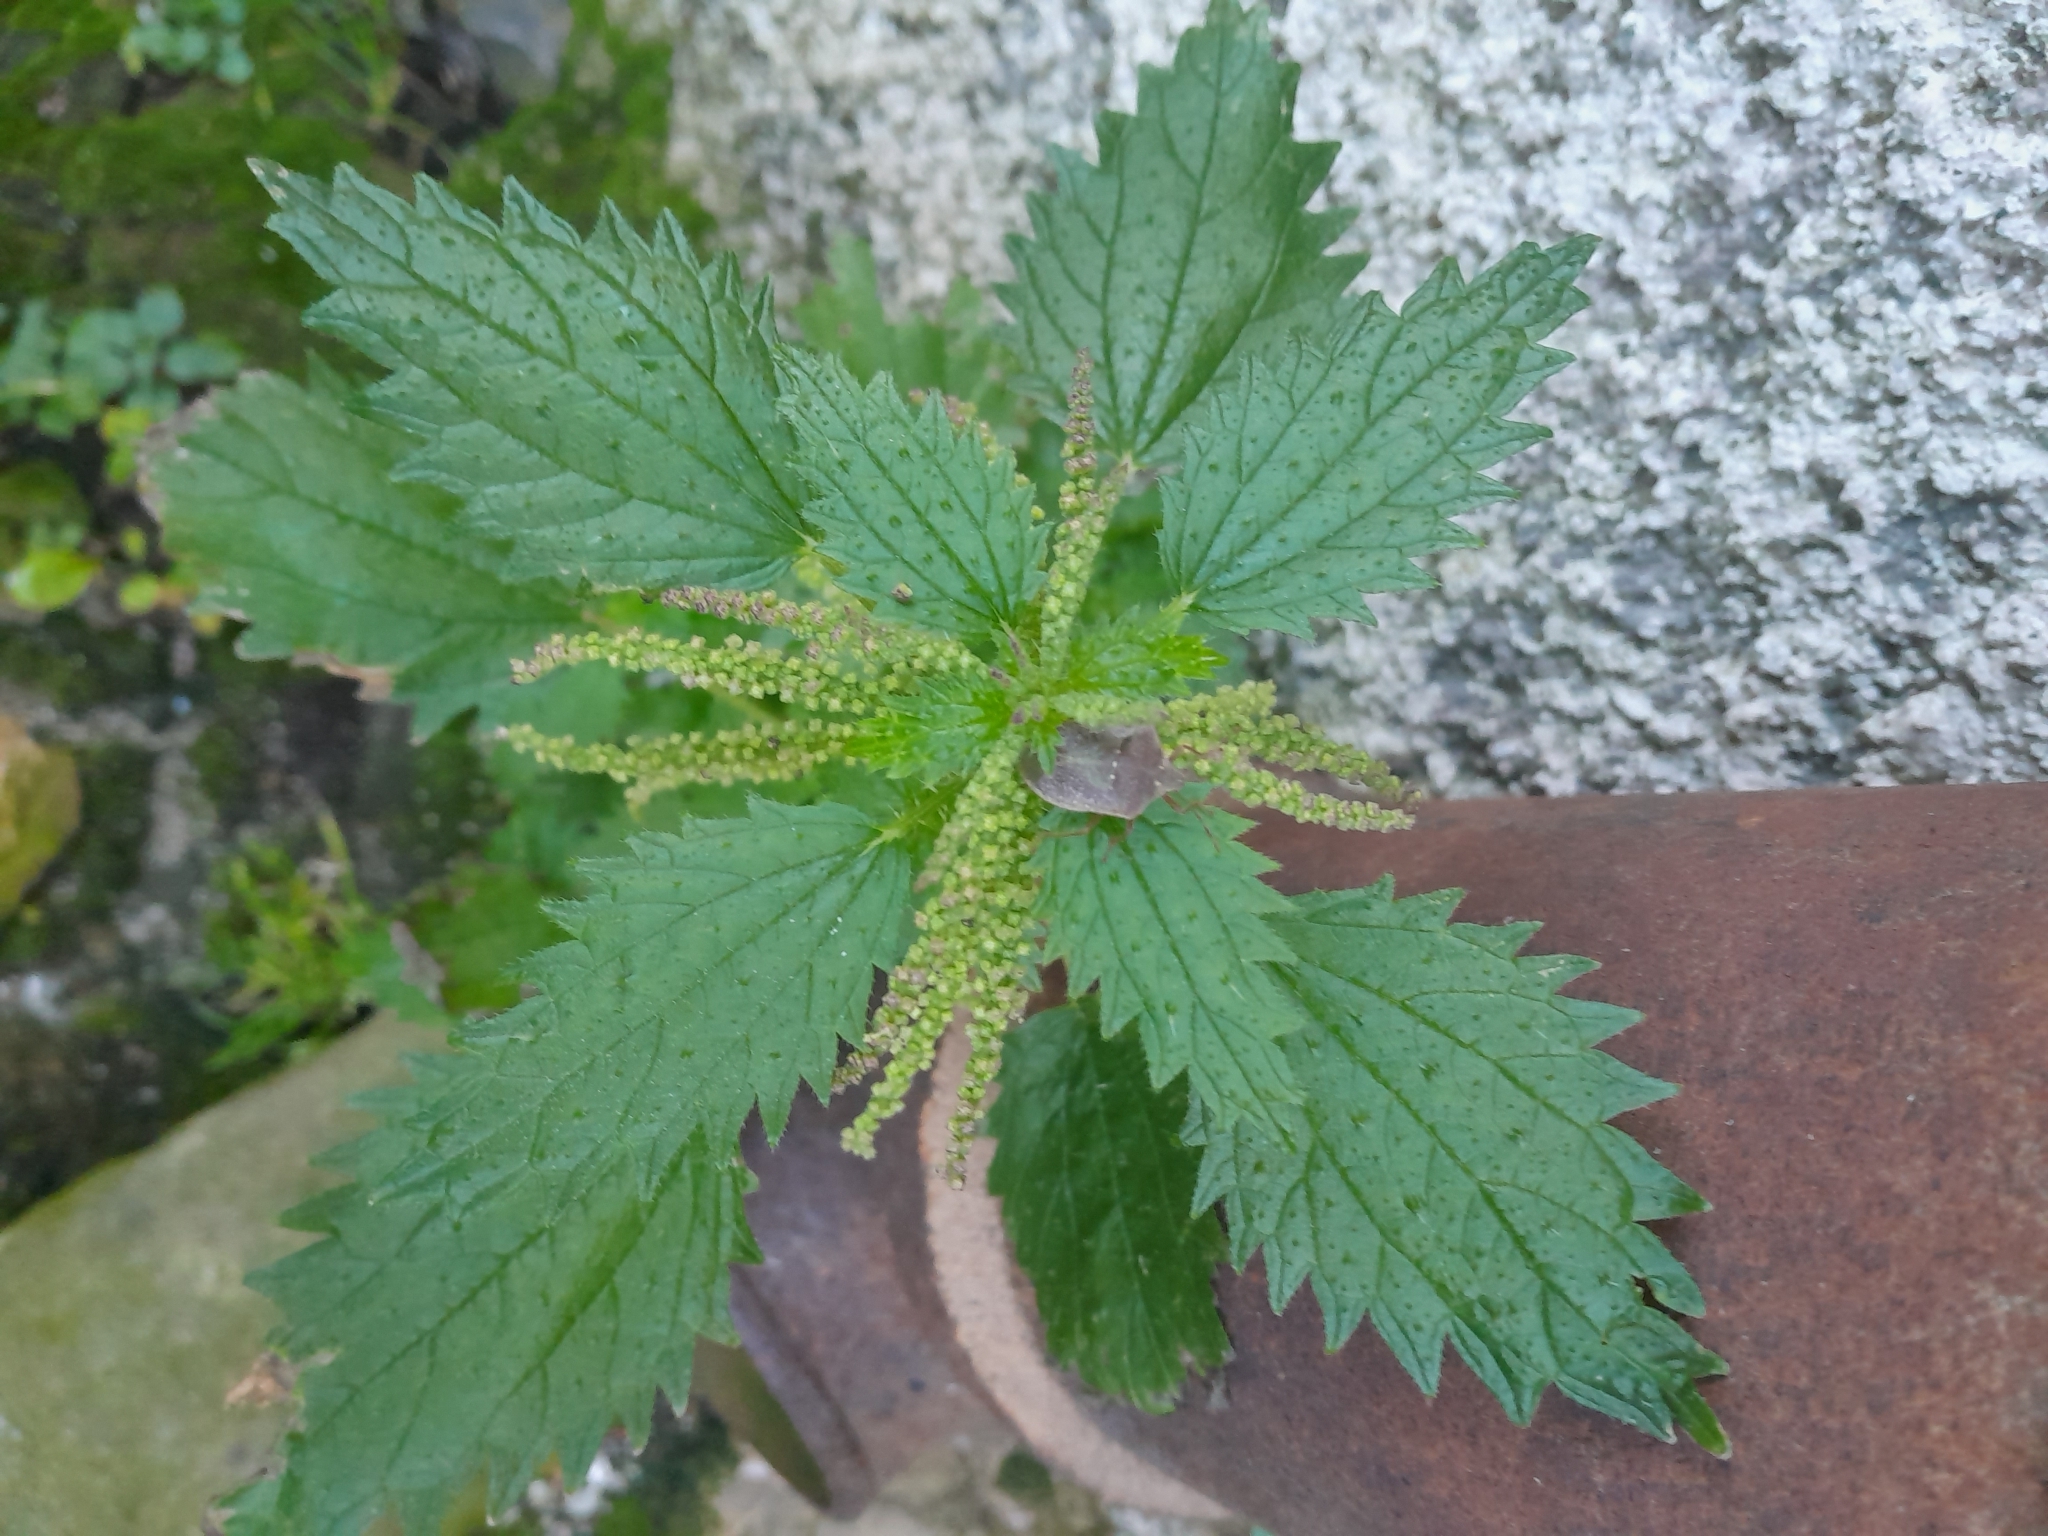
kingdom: Plantae
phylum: Tracheophyta
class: Magnoliopsida
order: Rosales
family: Urticaceae
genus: Urtica
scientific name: Urtica membranacea
